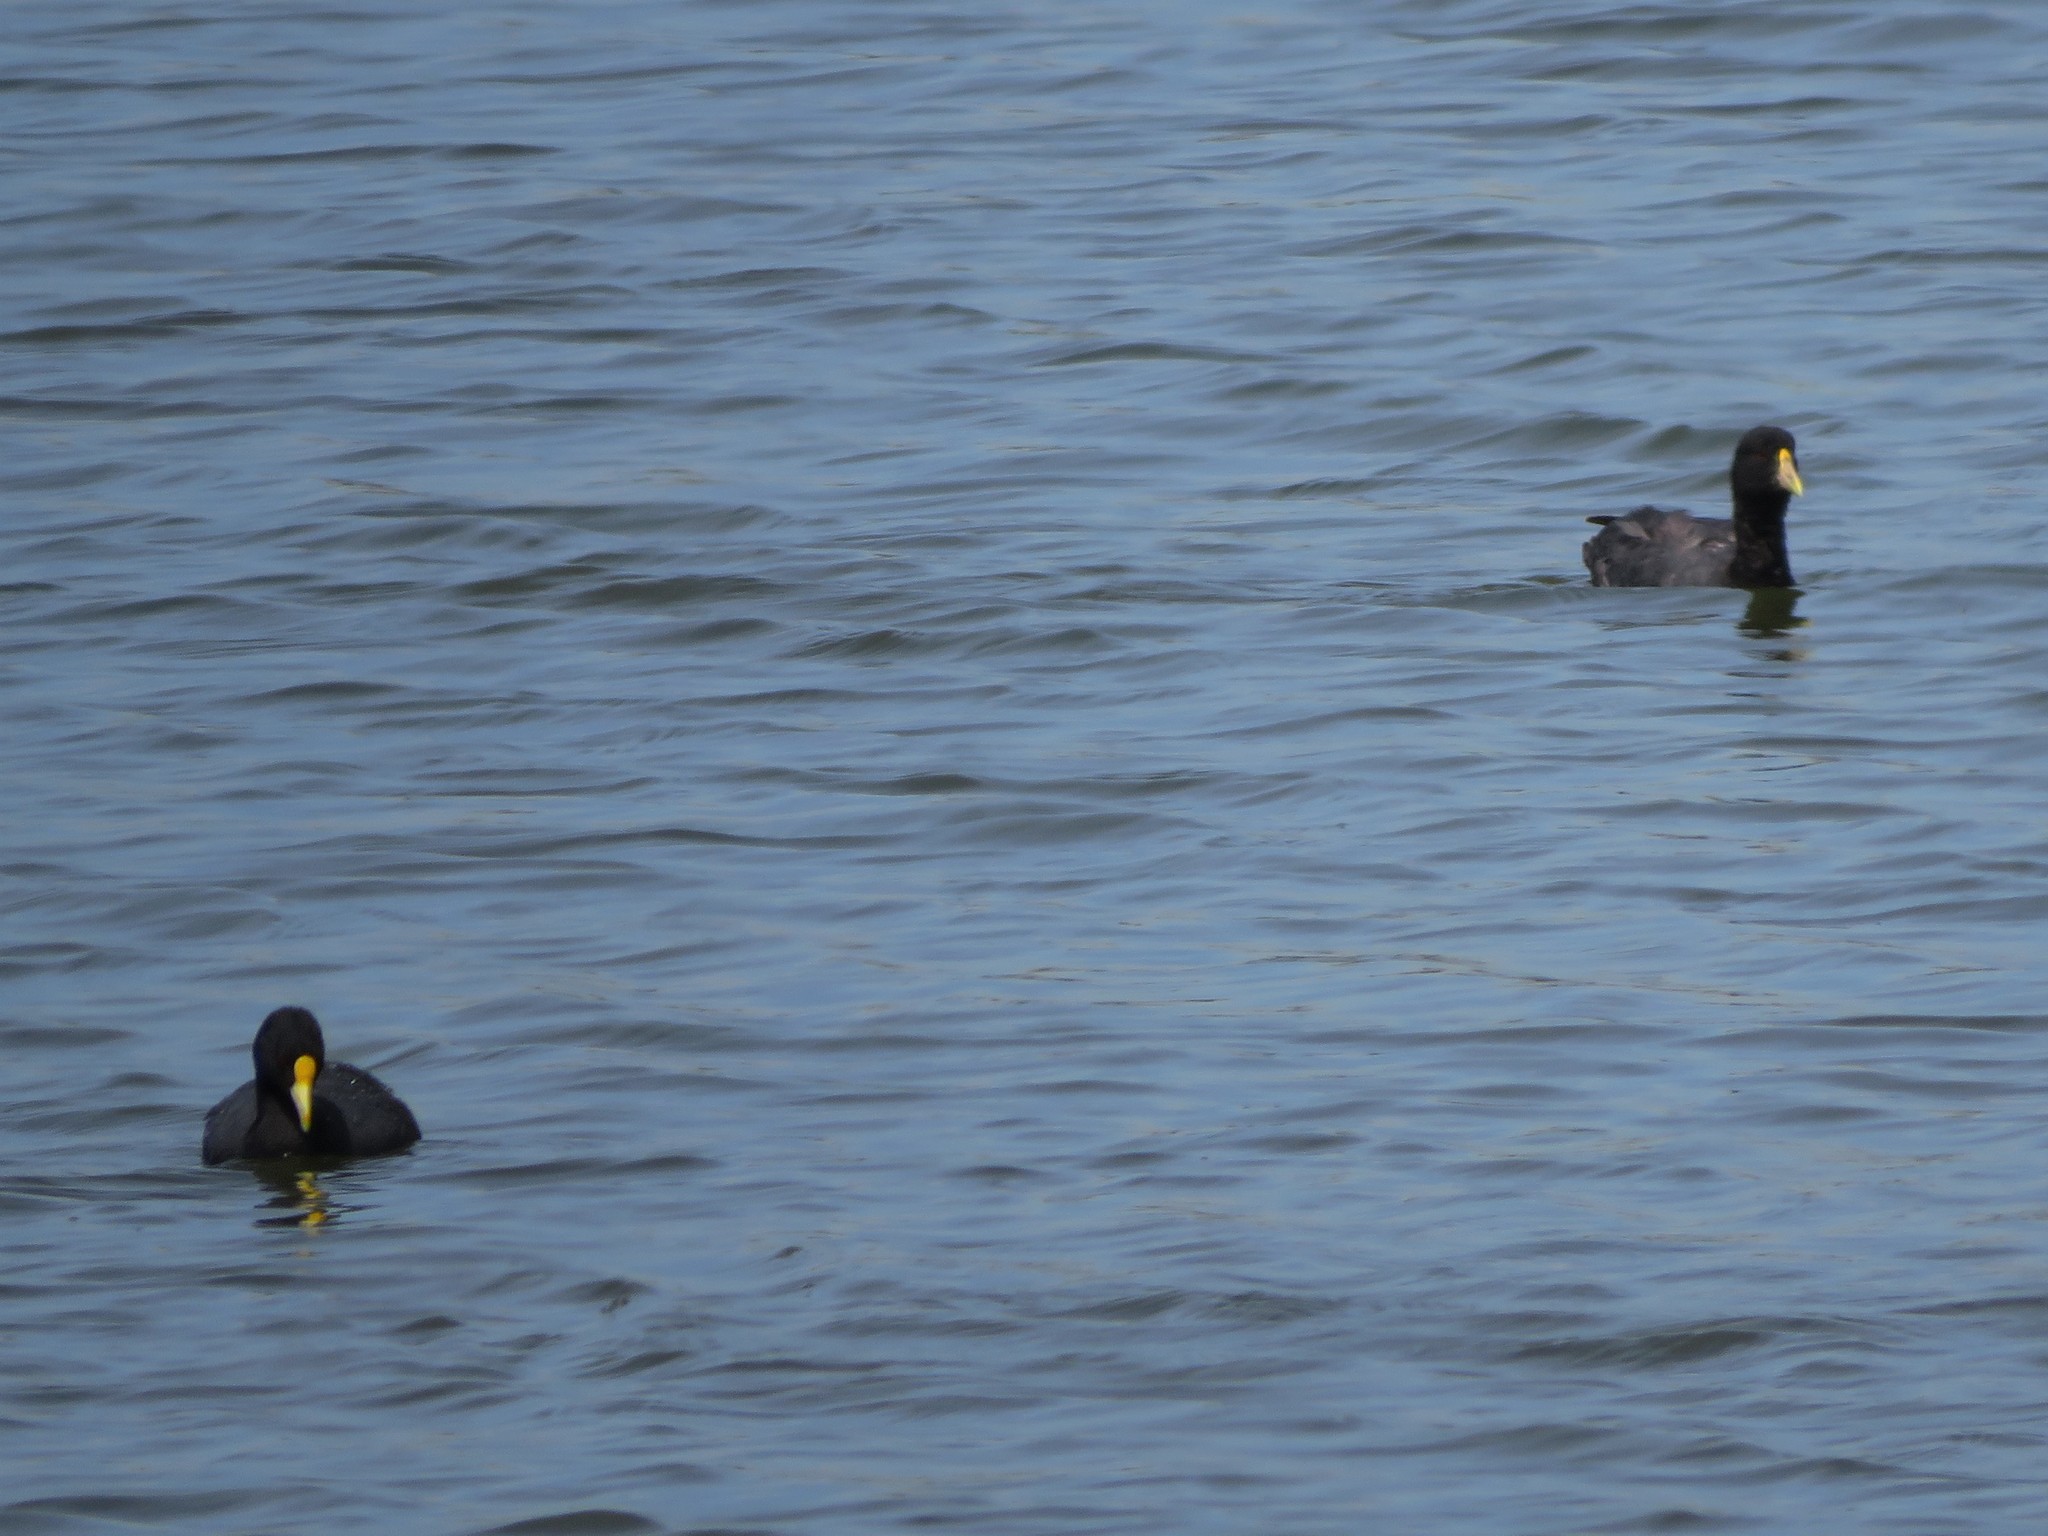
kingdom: Animalia
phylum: Chordata
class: Aves
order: Gruiformes
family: Rallidae
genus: Fulica
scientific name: Fulica leucoptera
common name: White-winged coot
